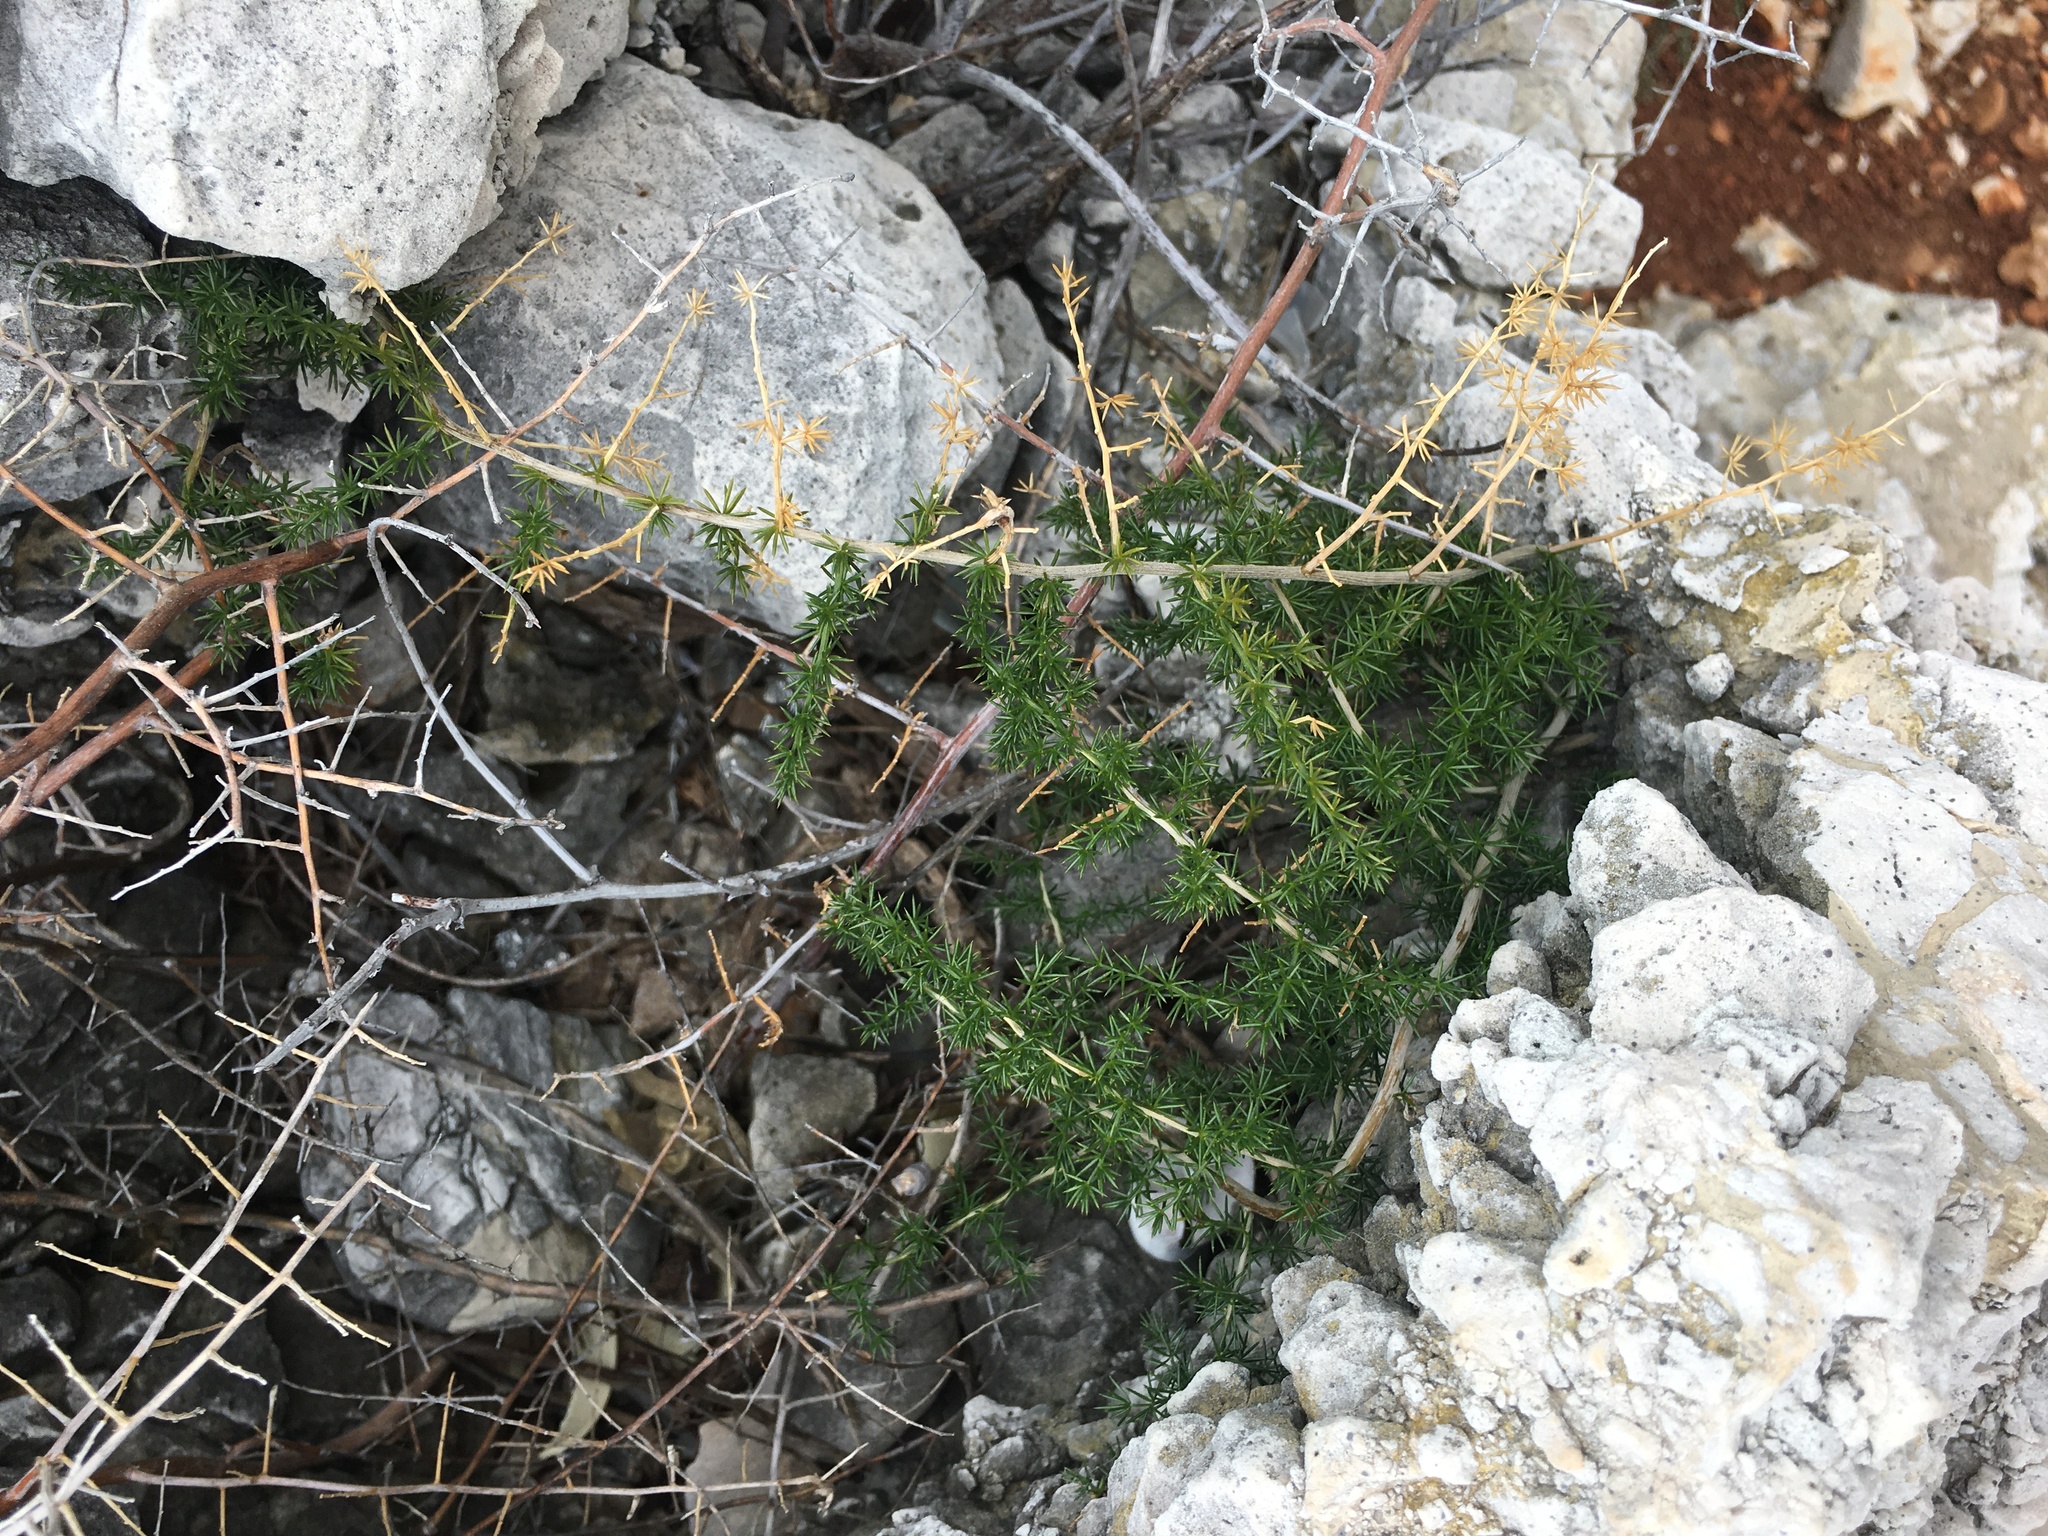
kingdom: Plantae
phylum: Tracheophyta
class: Liliopsida
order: Asparagales
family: Asparagaceae
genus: Asparagus
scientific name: Asparagus acutifolius
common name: Wild asparagus
